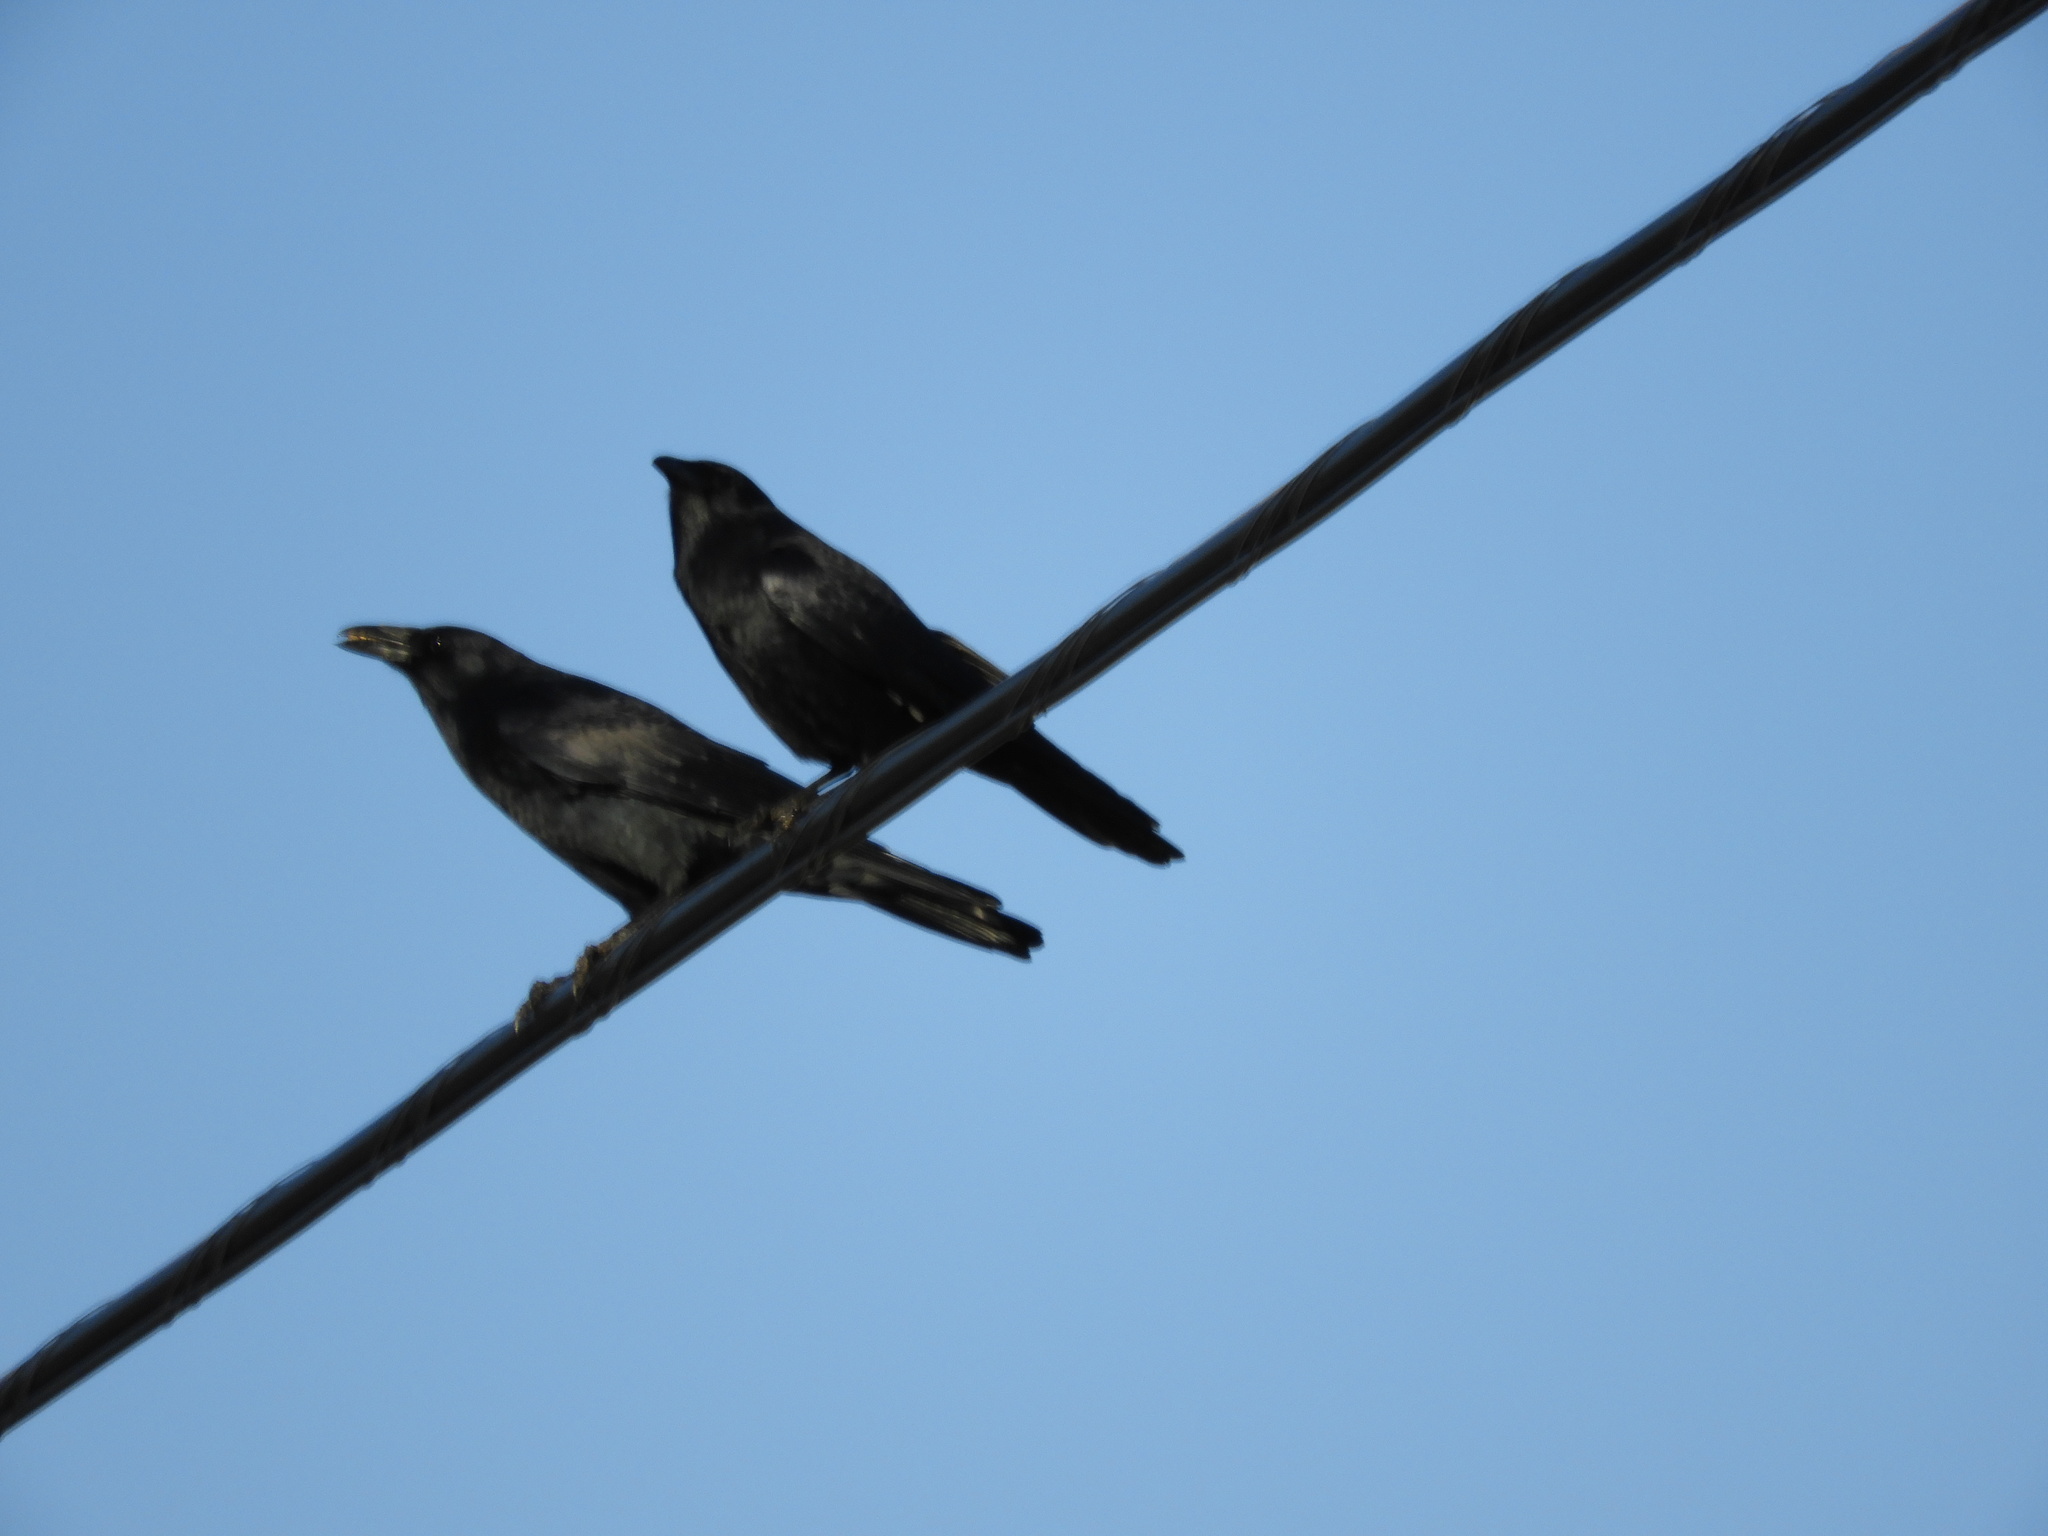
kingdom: Animalia
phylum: Chordata
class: Aves
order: Passeriformes
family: Corvidae
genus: Corvus
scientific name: Corvus brachyrhynchos
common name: American crow
